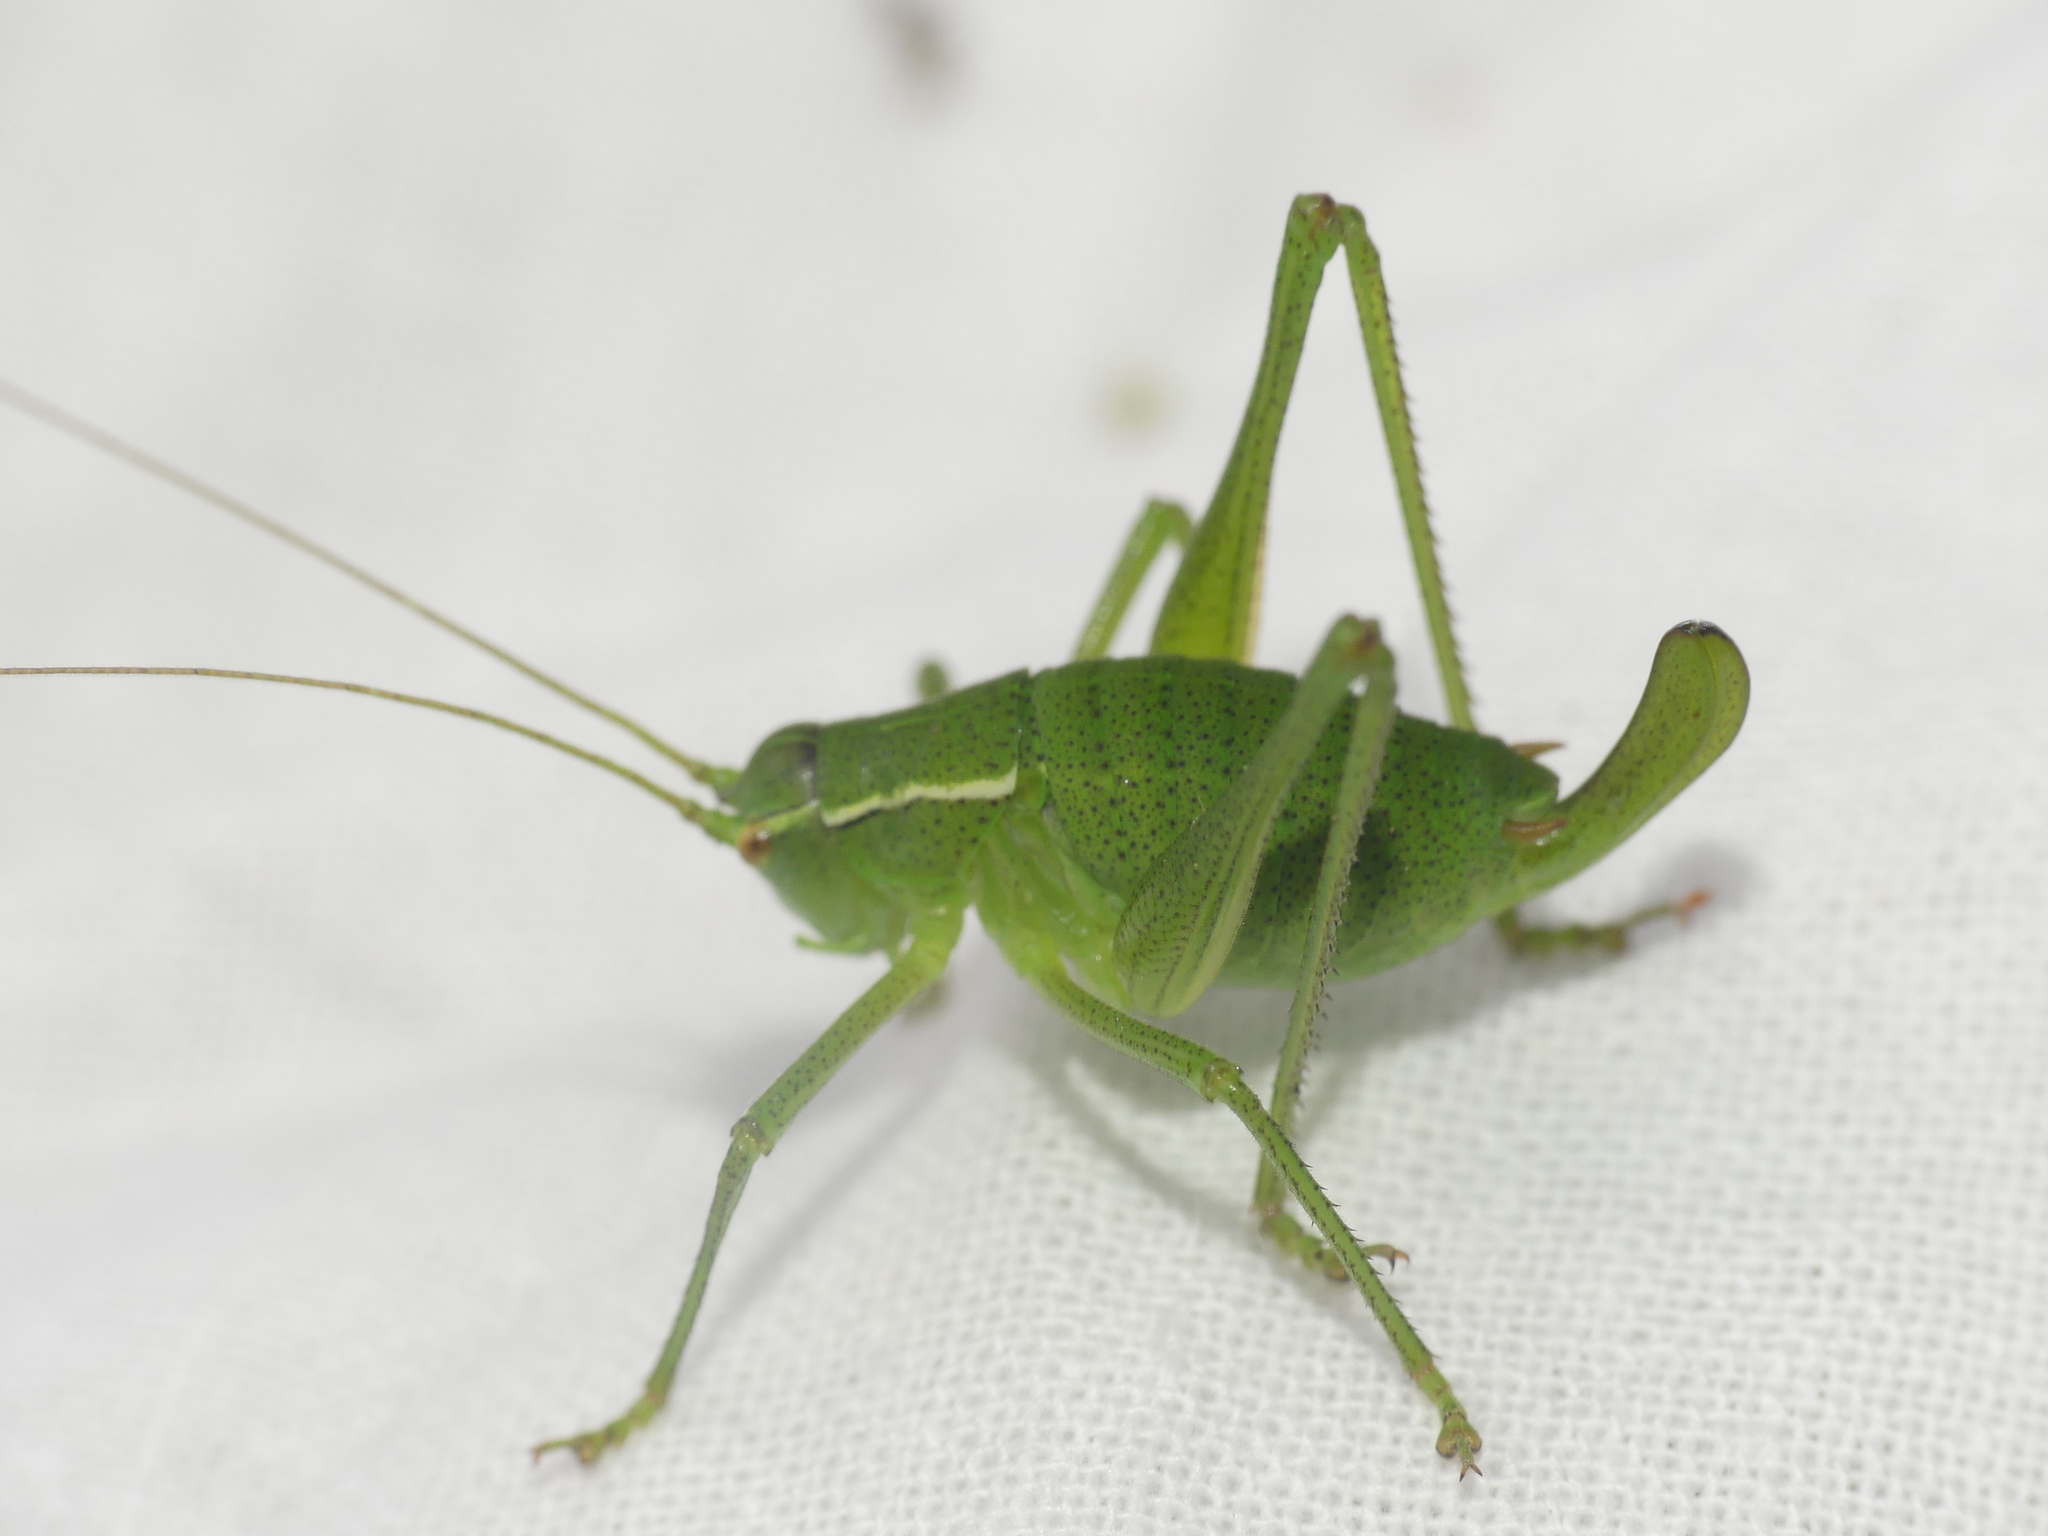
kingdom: Animalia
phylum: Arthropoda
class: Insecta
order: Orthoptera
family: Tettigoniidae
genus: Barbitistes
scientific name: Barbitistes obtusus
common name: Alpine saw bush-cricket
